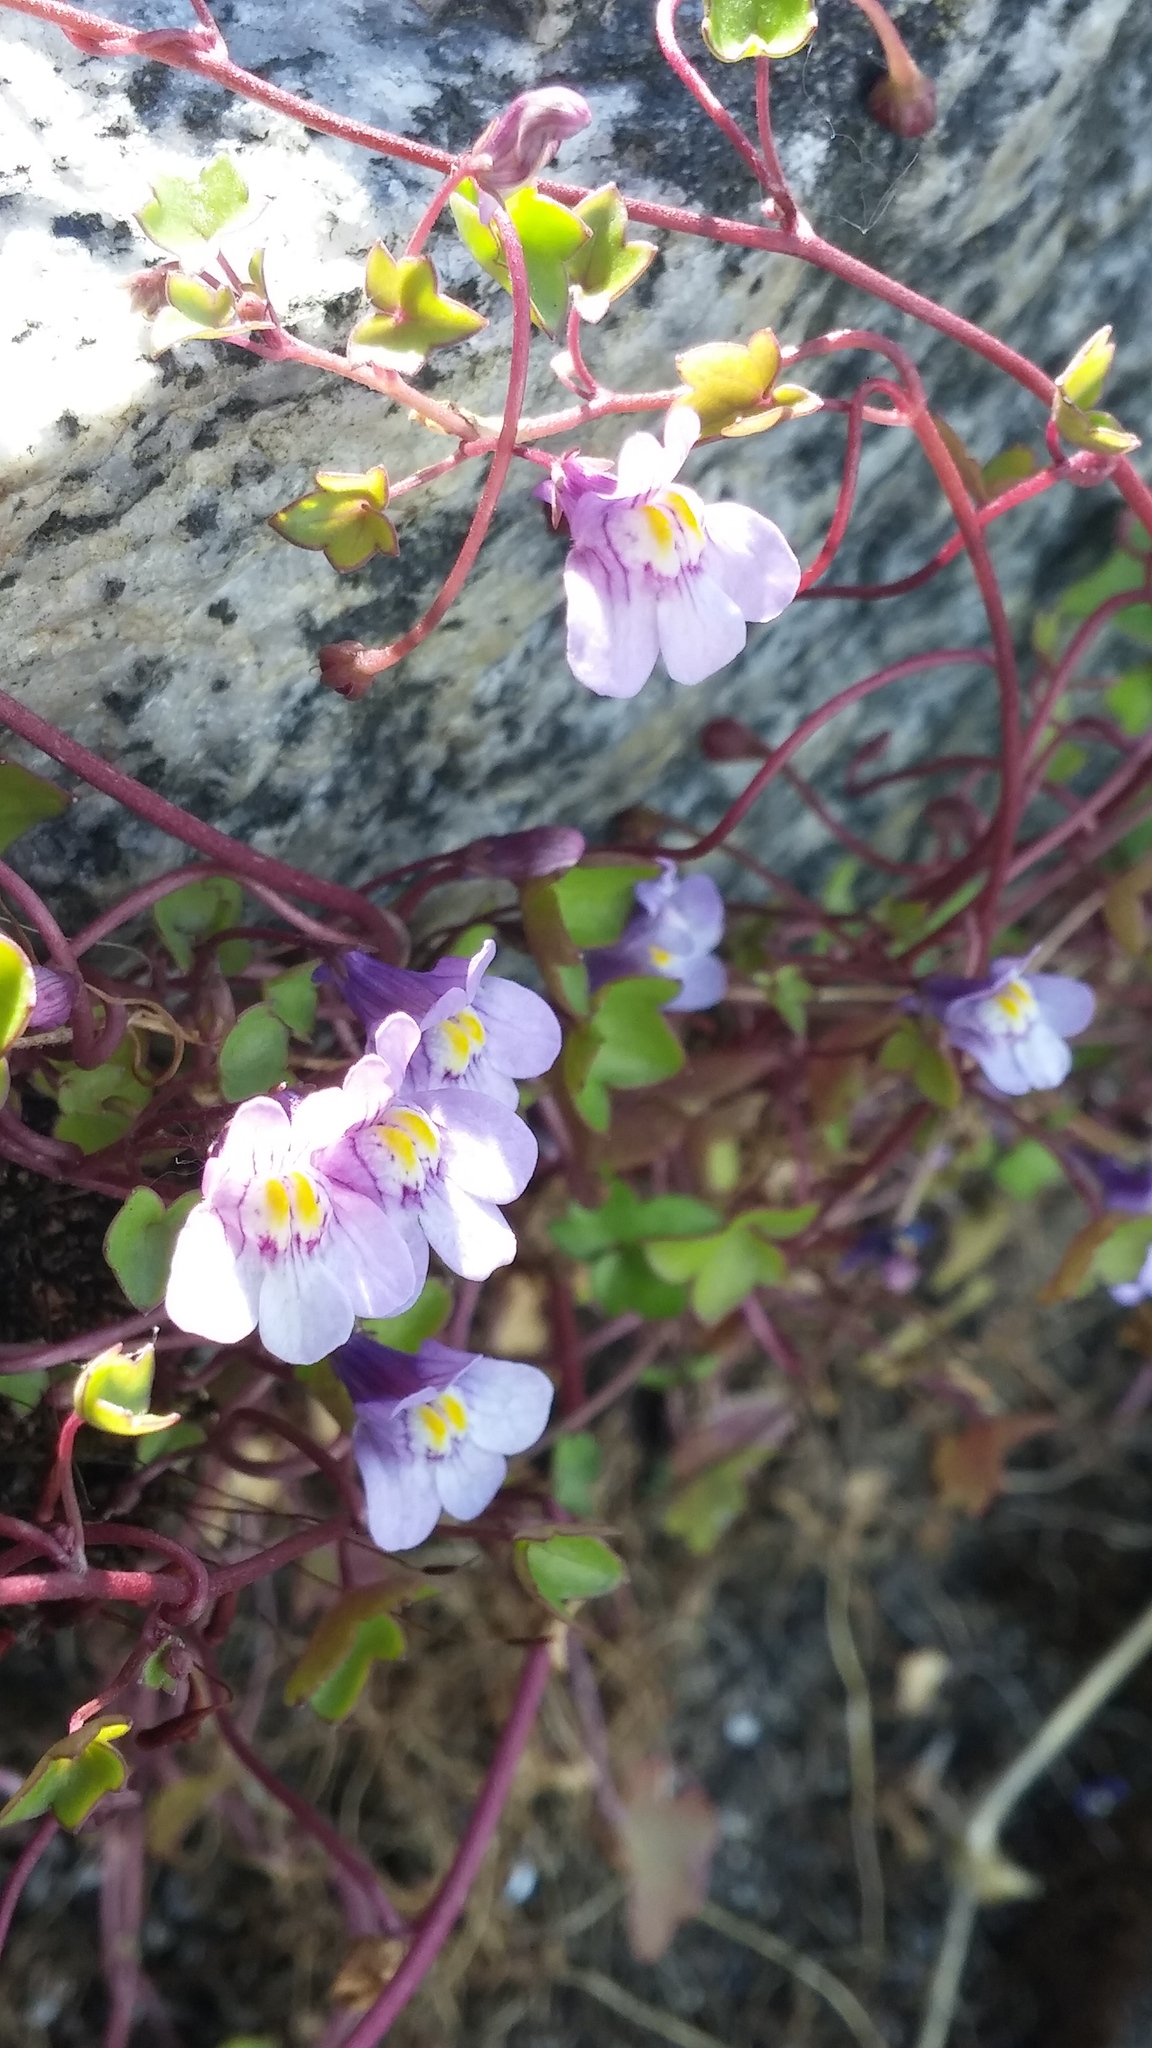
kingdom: Plantae
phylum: Tracheophyta
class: Magnoliopsida
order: Lamiales
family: Plantaginaceae
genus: Cymbalaria
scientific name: Cymbalaria muralis
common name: Ivy-leaved toadflax
